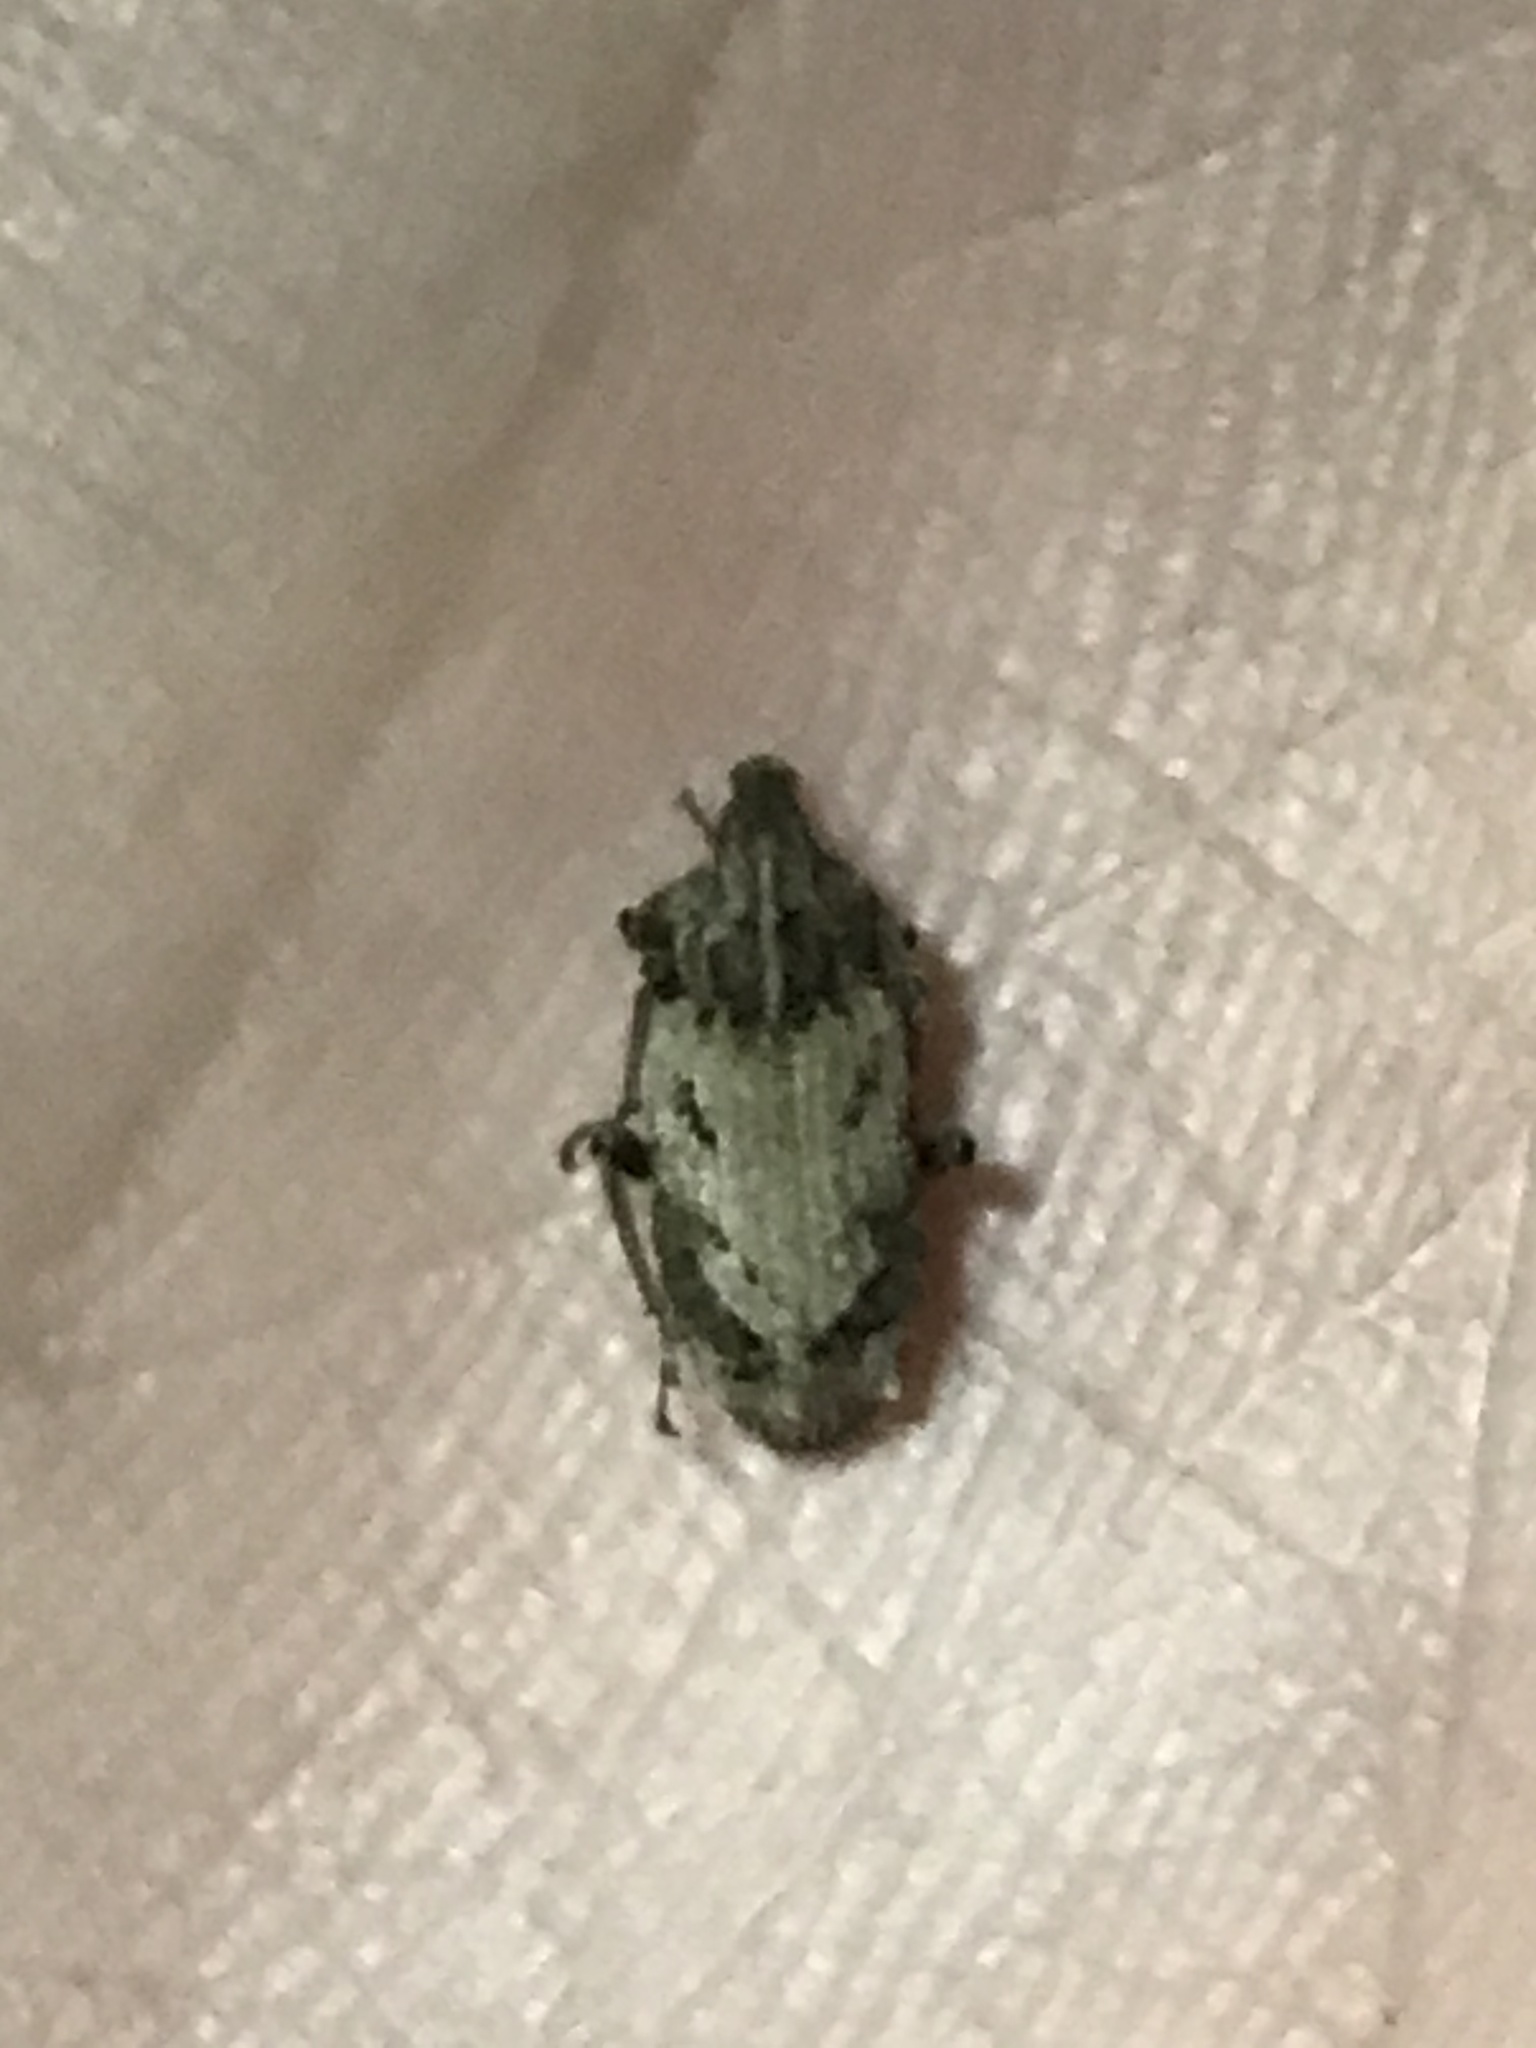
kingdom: Animalia
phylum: Arthropoda
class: Insecta
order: Coleoptera
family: Curculionidae
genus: Listroderes
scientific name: Listroderes costirostris
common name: Weevil
